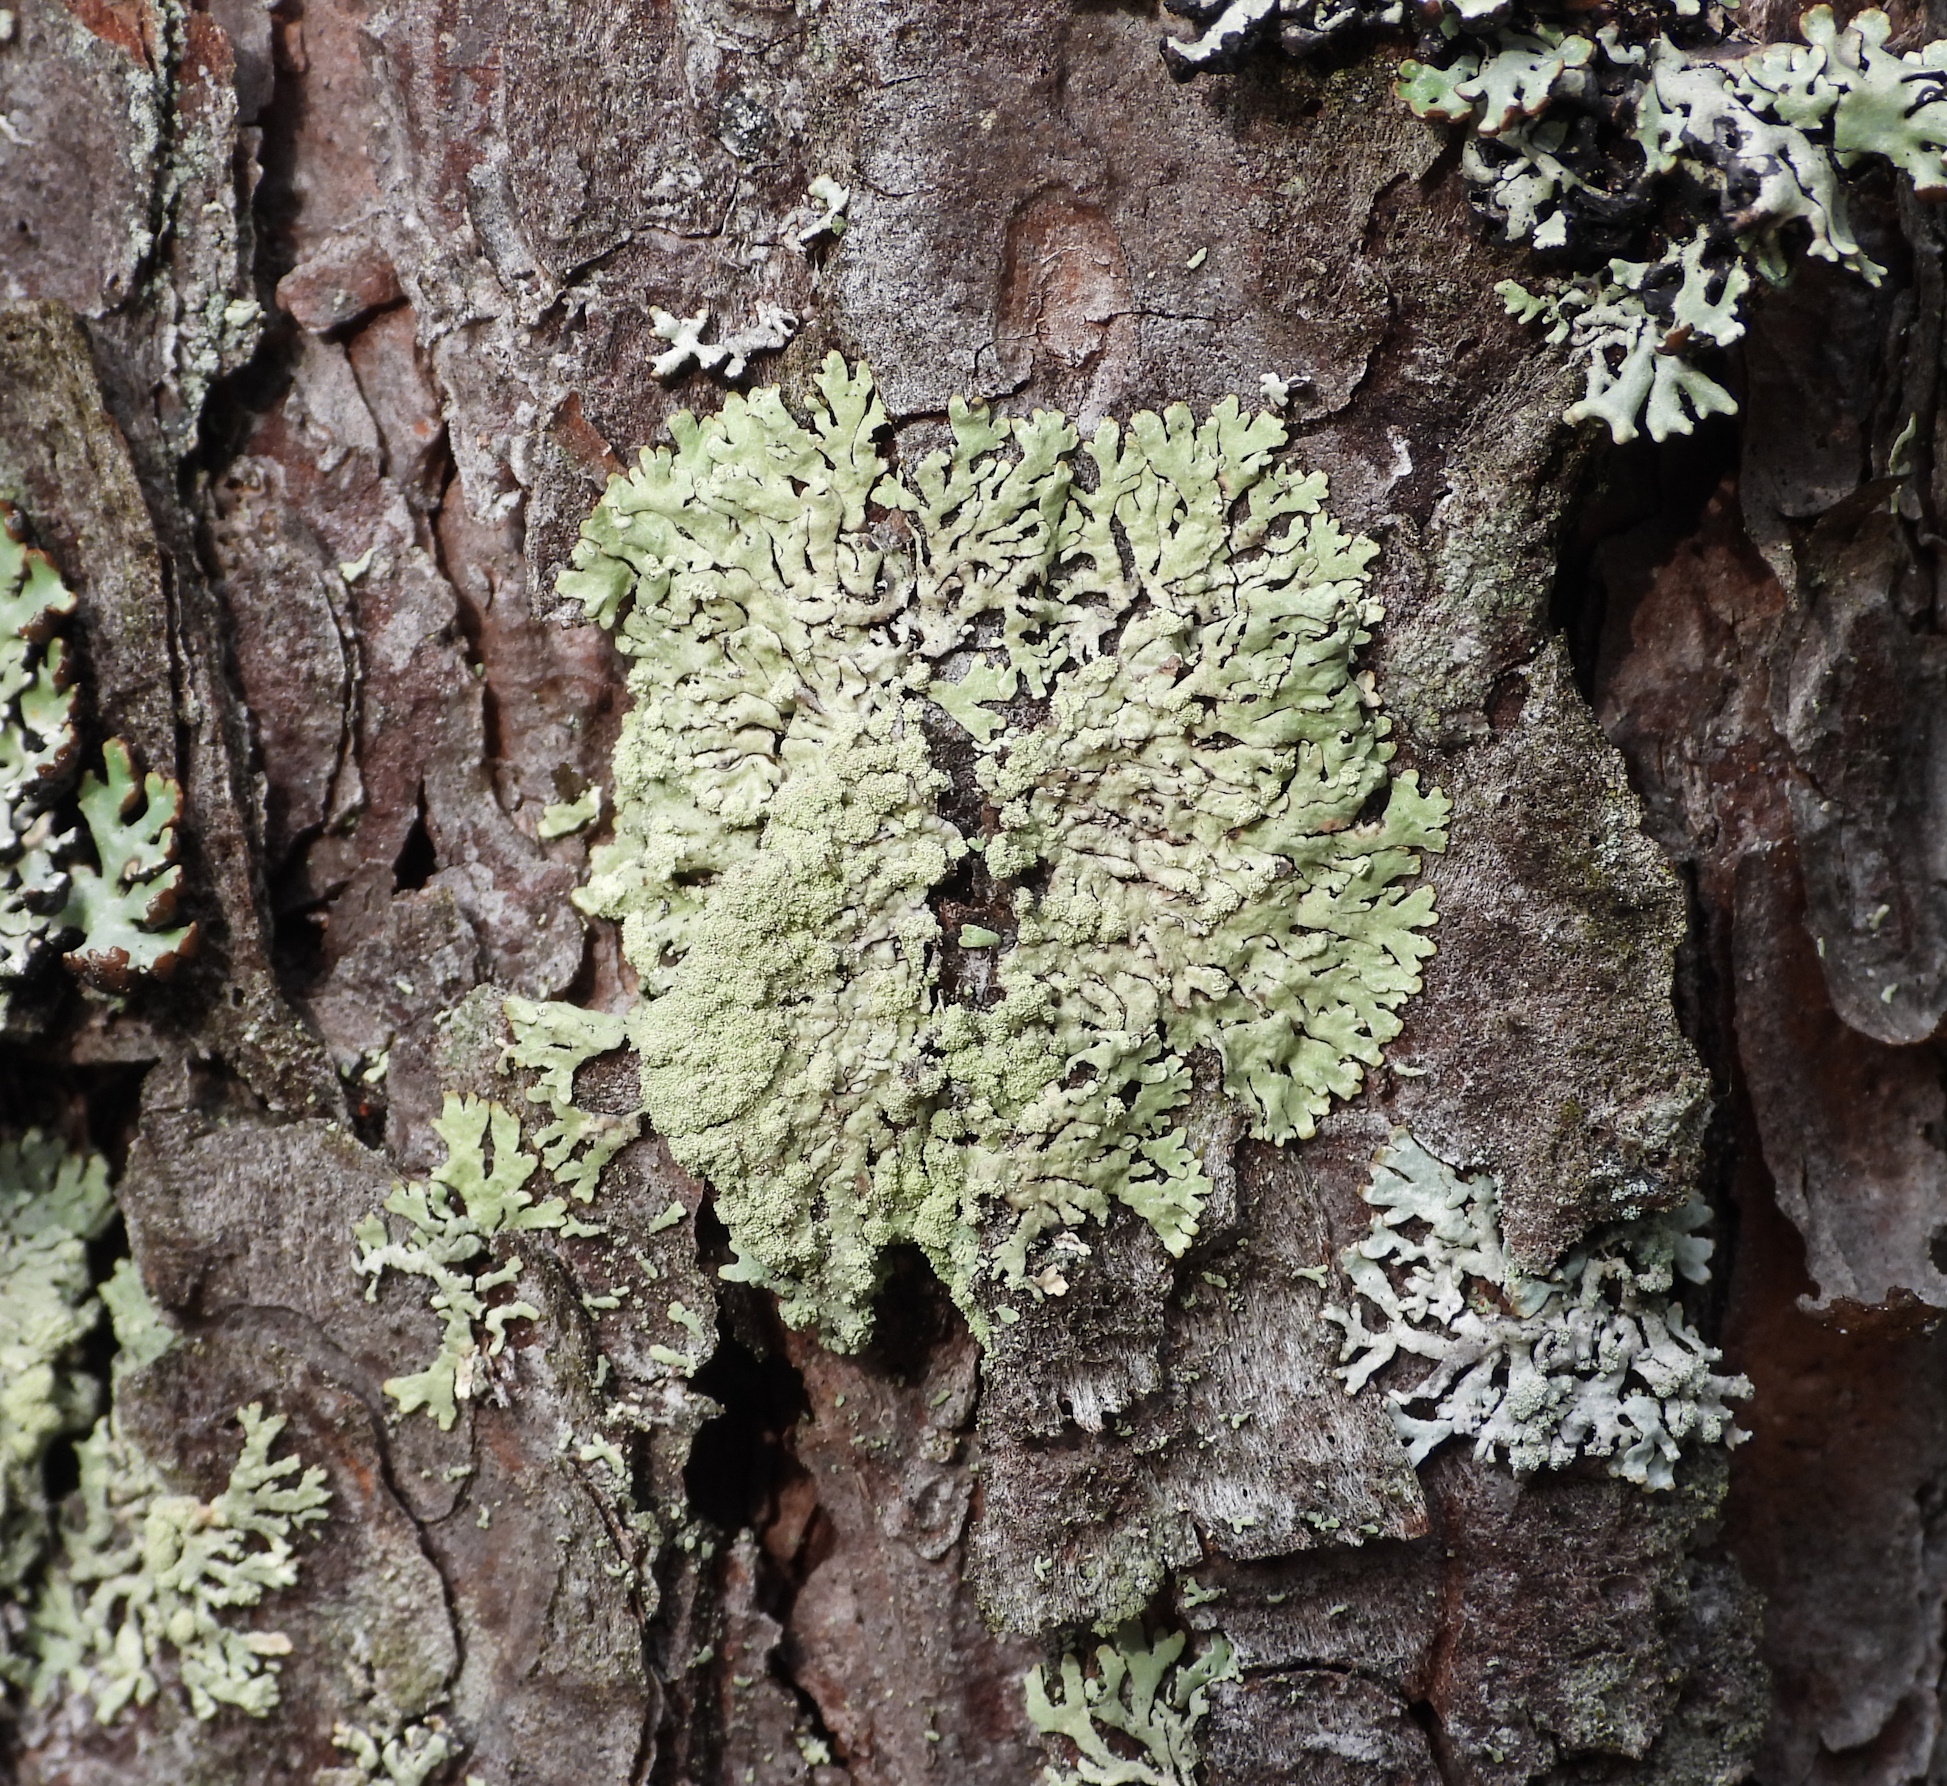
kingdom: Fungi
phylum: Ascomycota
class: Lecanoromycetes
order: Lecanorales
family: Parmeliaceae
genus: Parmeliopsis
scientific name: Parmeliopsis ambigua
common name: Green starburst lichen
